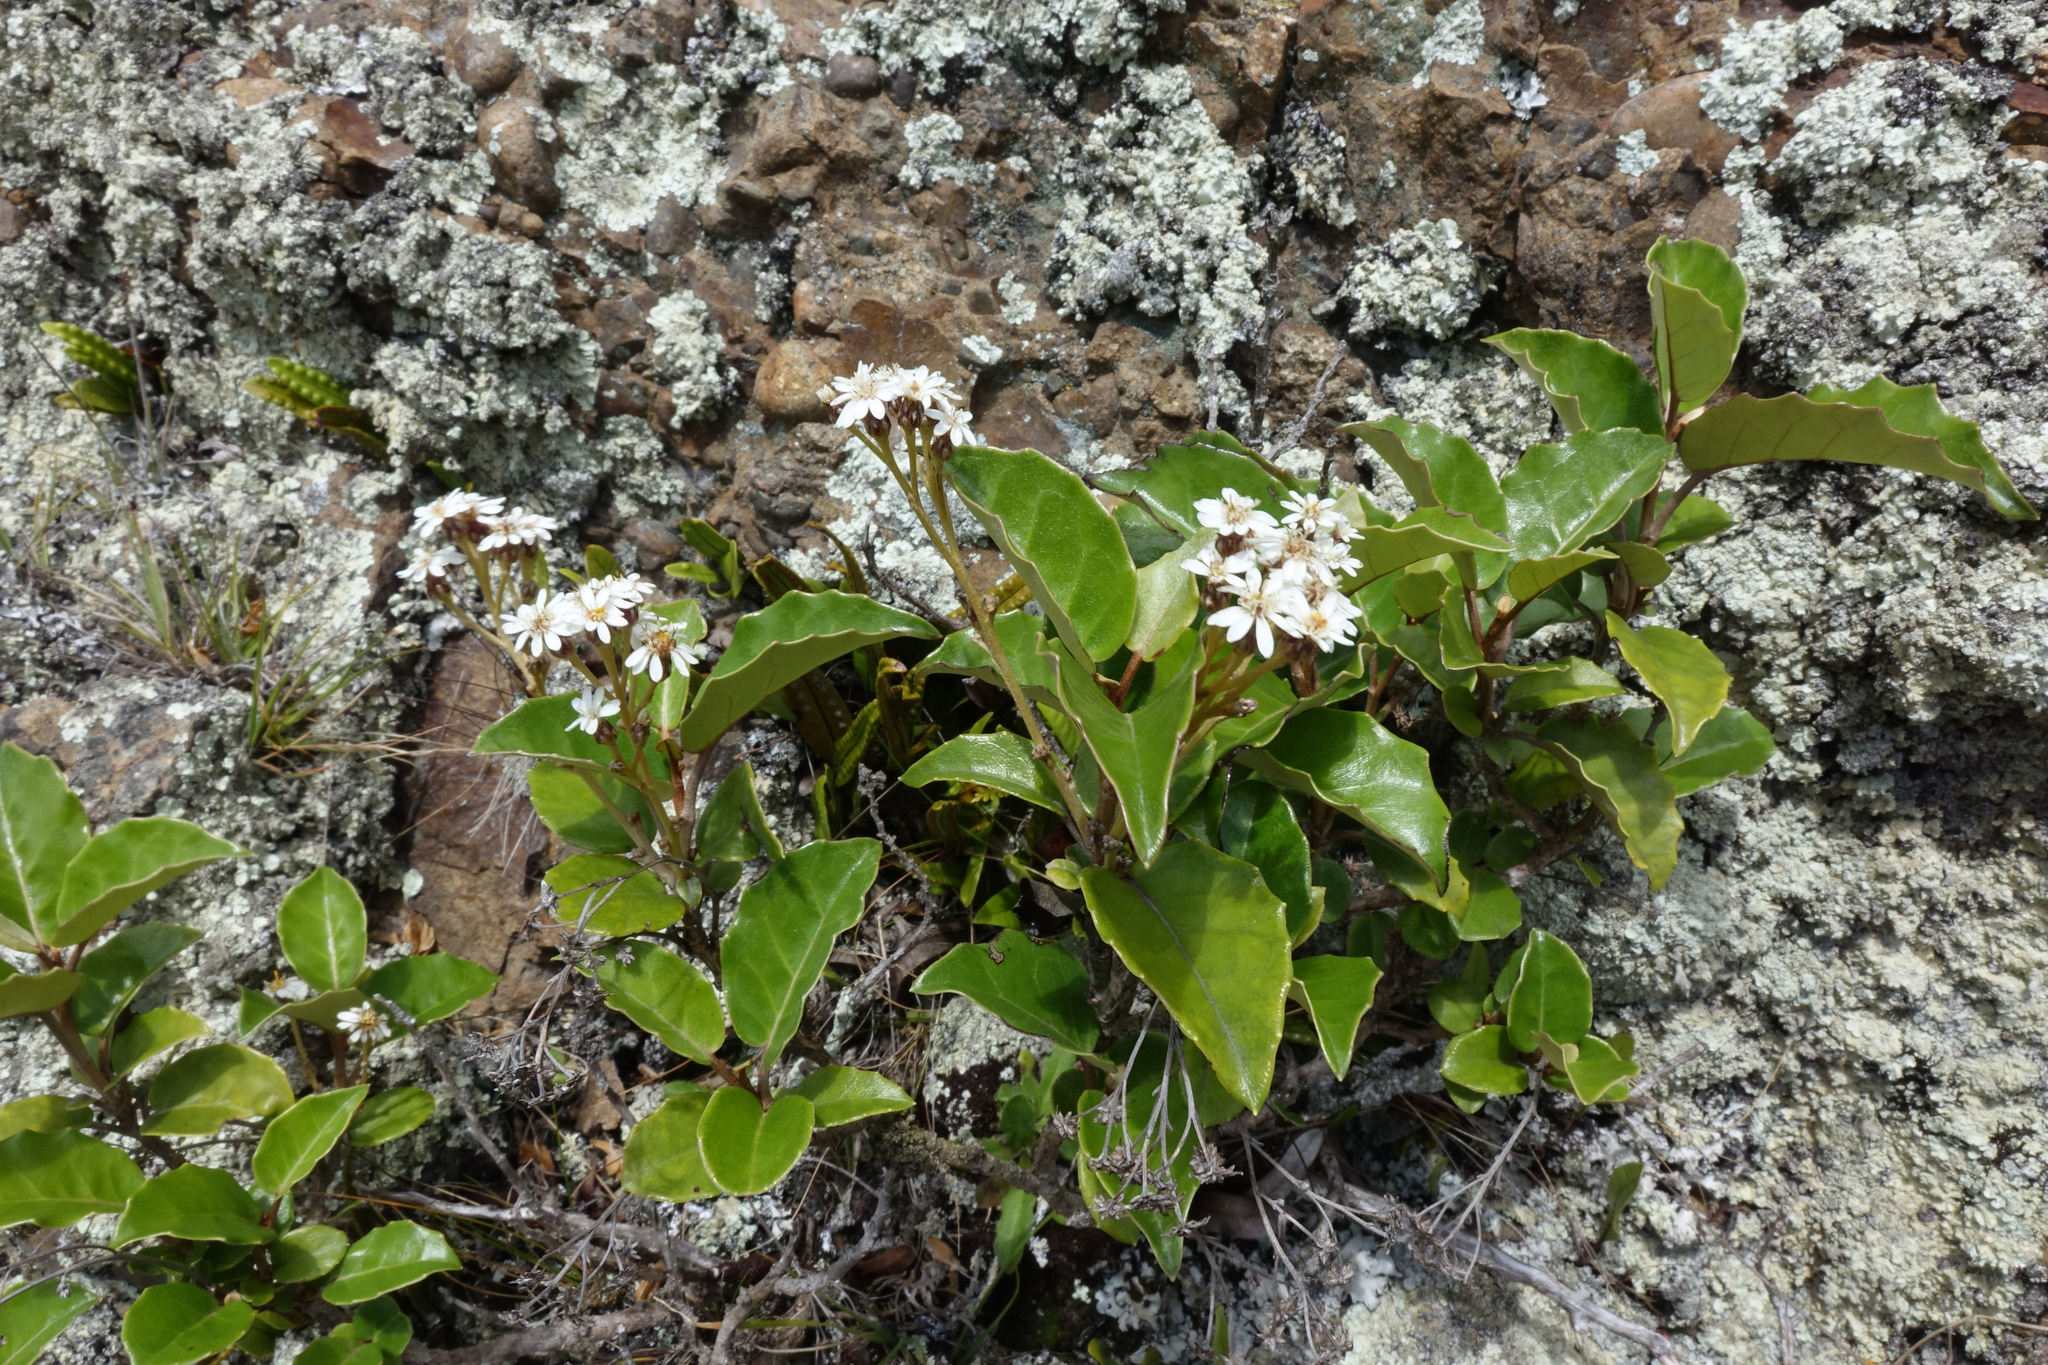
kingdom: Plantae
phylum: Tracheophyta
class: Magnoliopsida
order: Asterales
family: Asteraceae
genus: Olearia
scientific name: Olearia arborescens
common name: Glossy tree daisy
